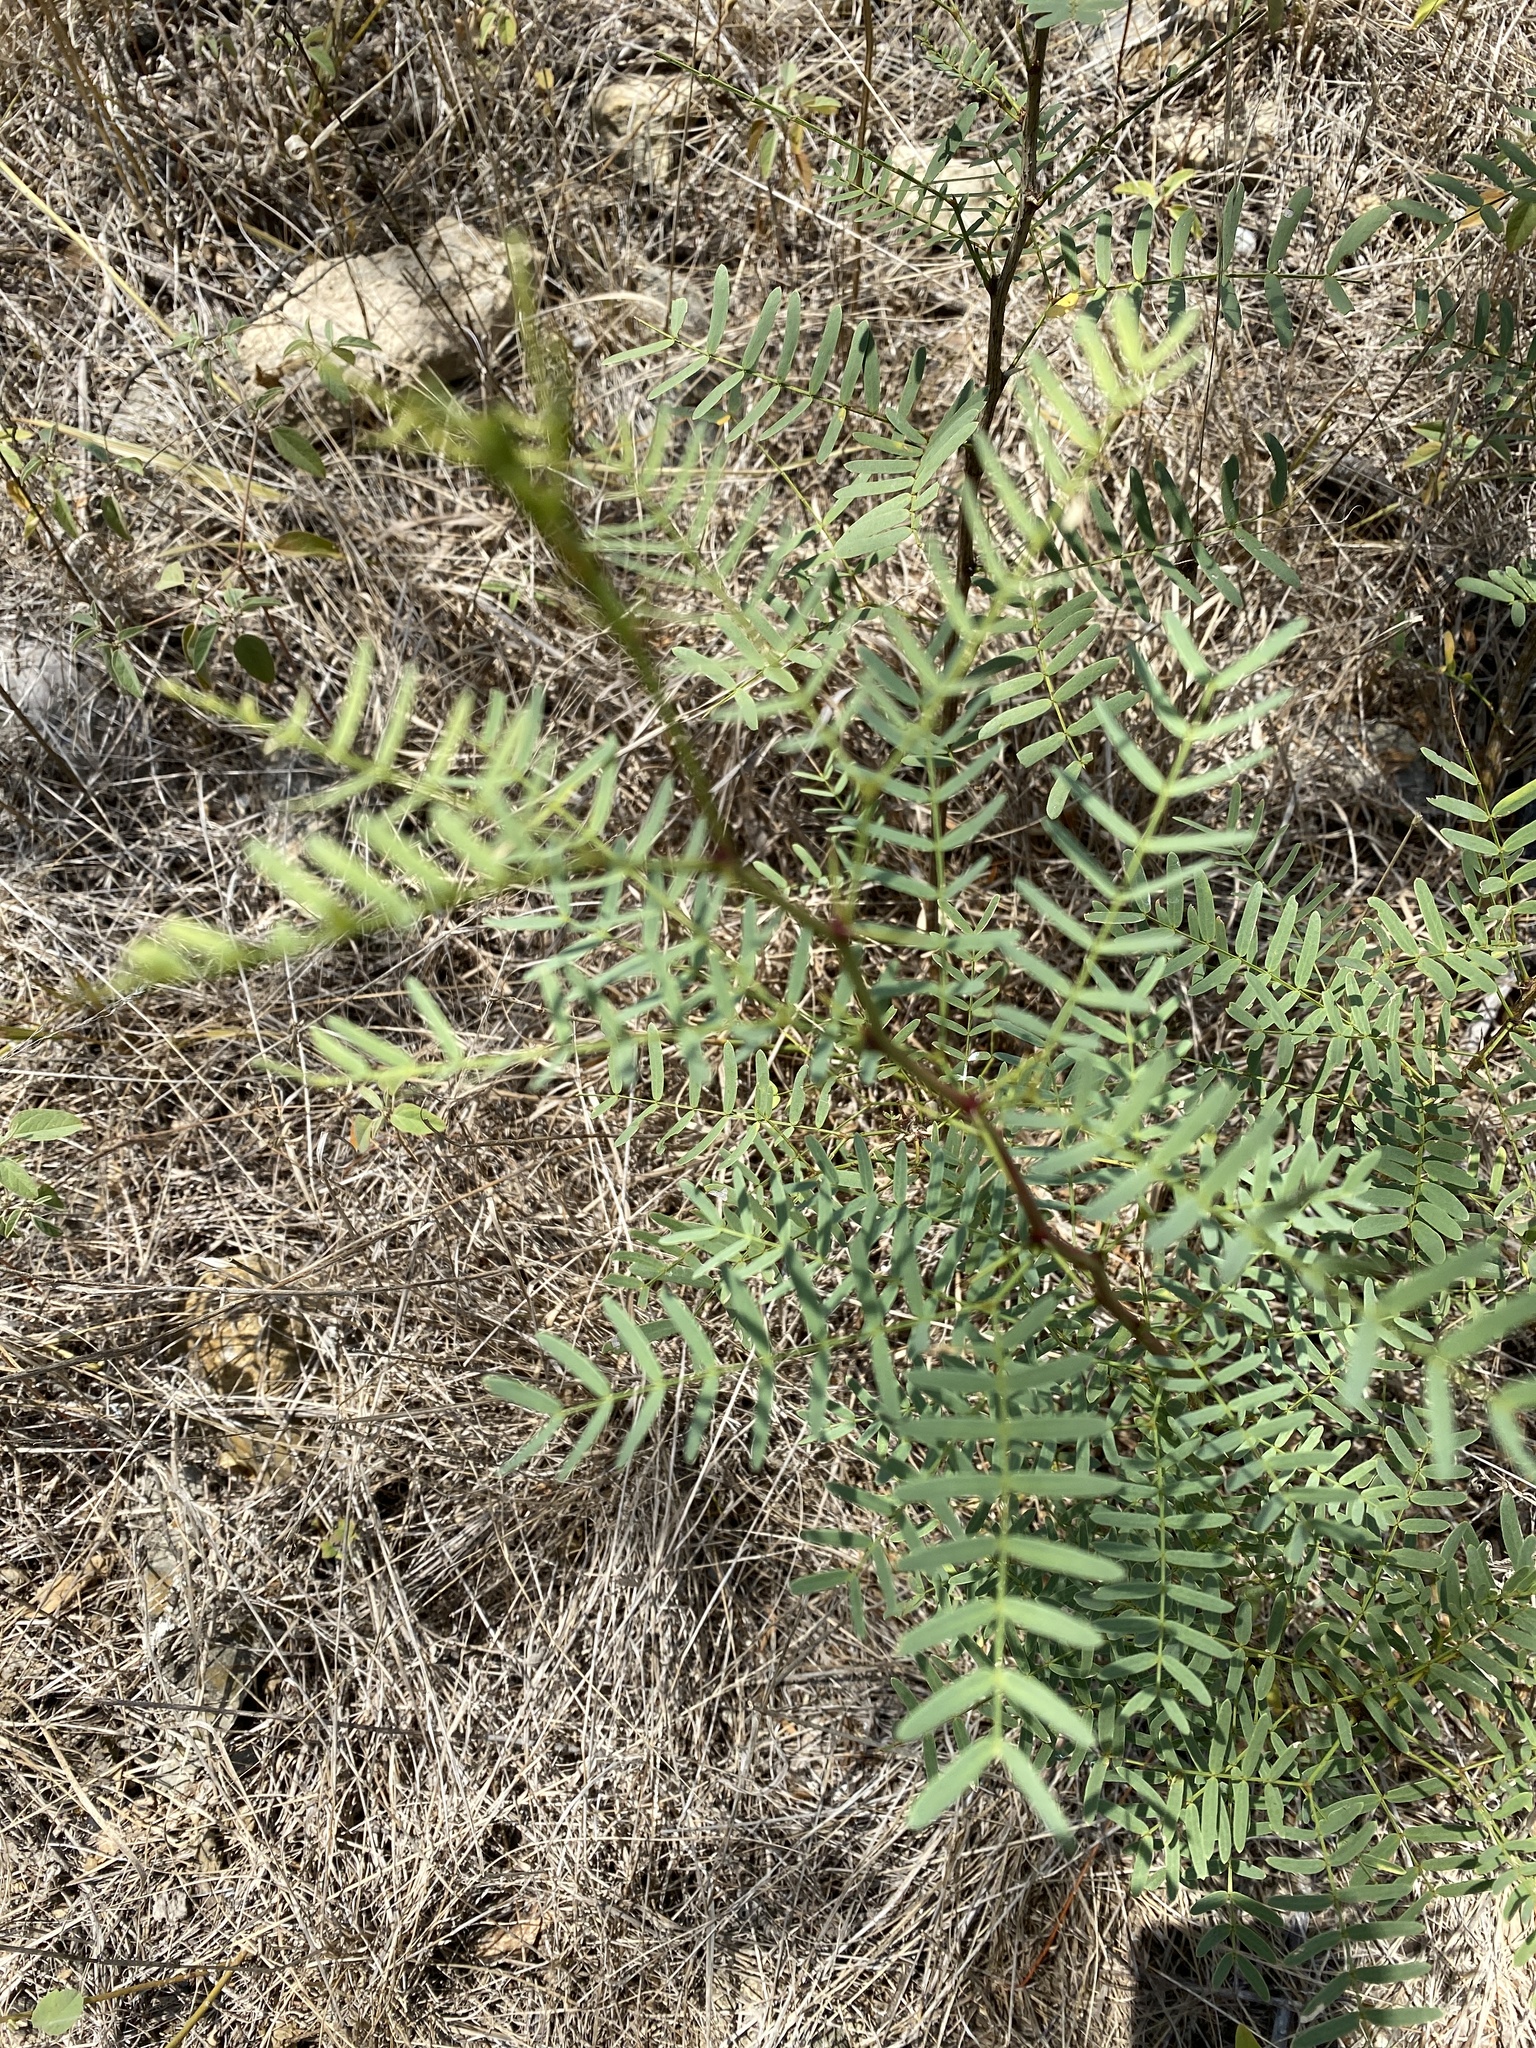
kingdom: Plantae
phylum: Tracheophyta
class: Magnoliopsida
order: Fabales
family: Fabaceae
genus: Prosopis
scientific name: Prosopis glandulosa
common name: Honey mesquite
